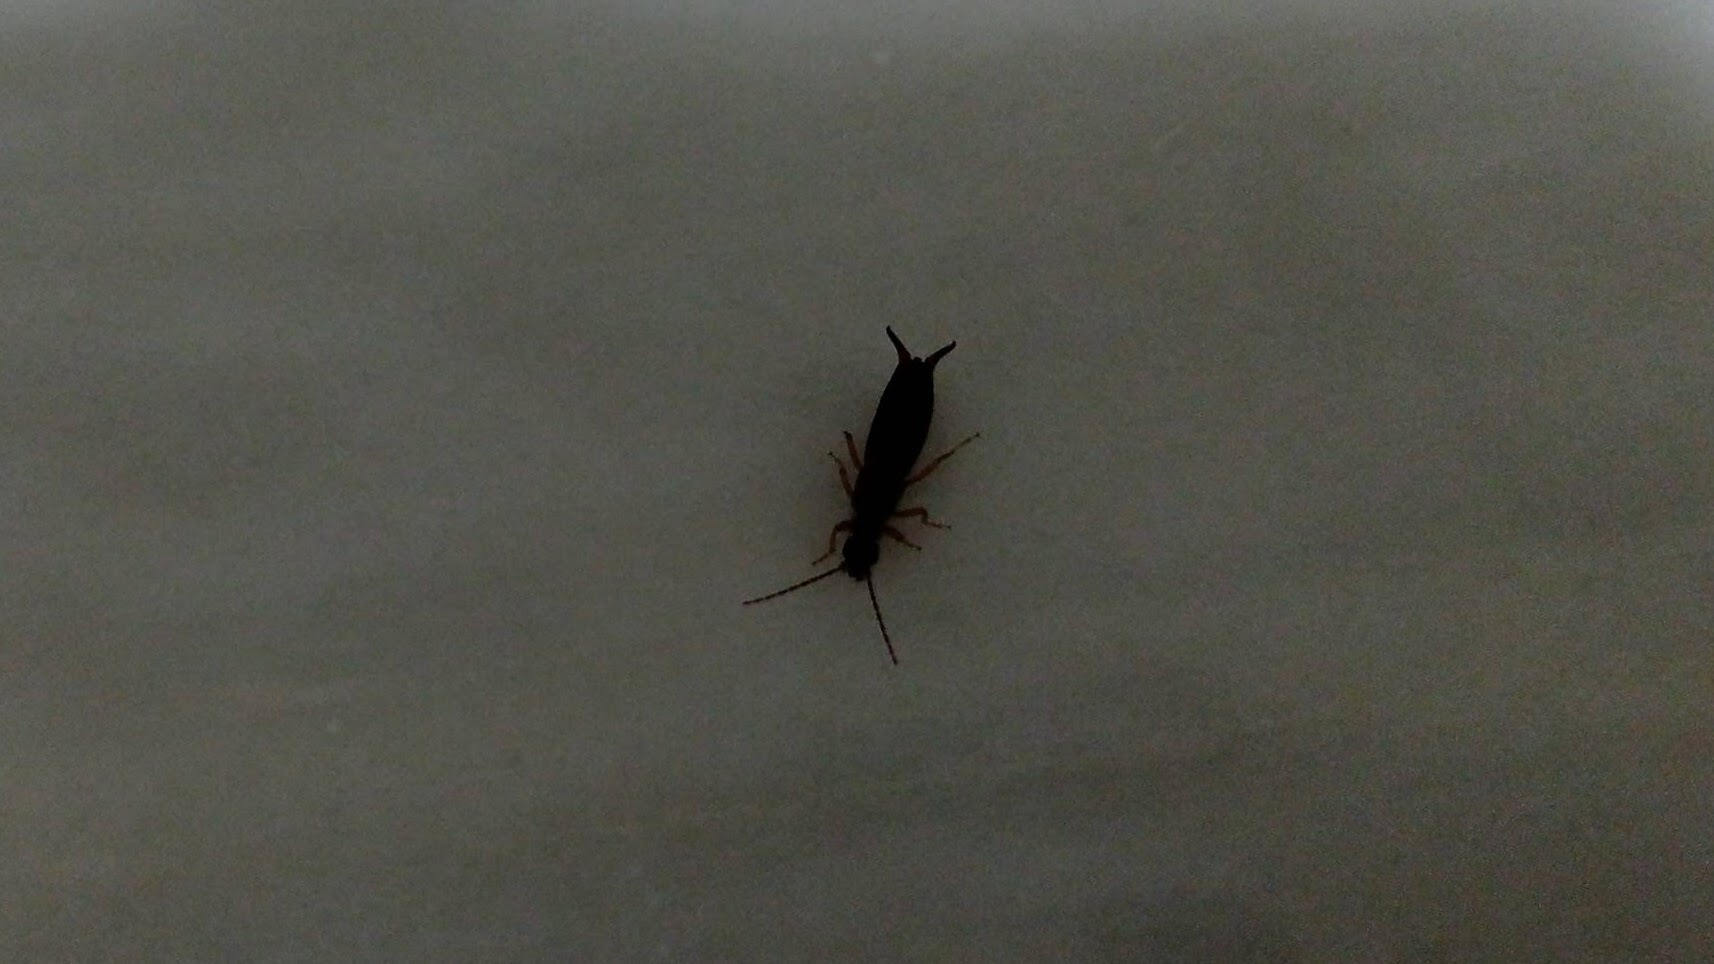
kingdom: Animalia
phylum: Arthropoda
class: Insecta
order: Dermaptera
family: Forficulidae
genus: Forficula
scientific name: Forficula dentata
